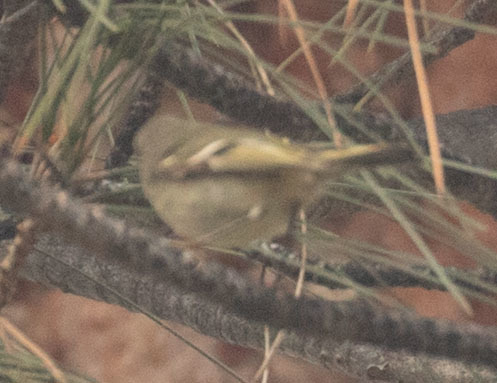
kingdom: Animalia
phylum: Chordata
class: Aves
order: Passeriformes
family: Regulidae
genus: Regulus
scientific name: Regulus calendula
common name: Ruby-crowned kinglet
